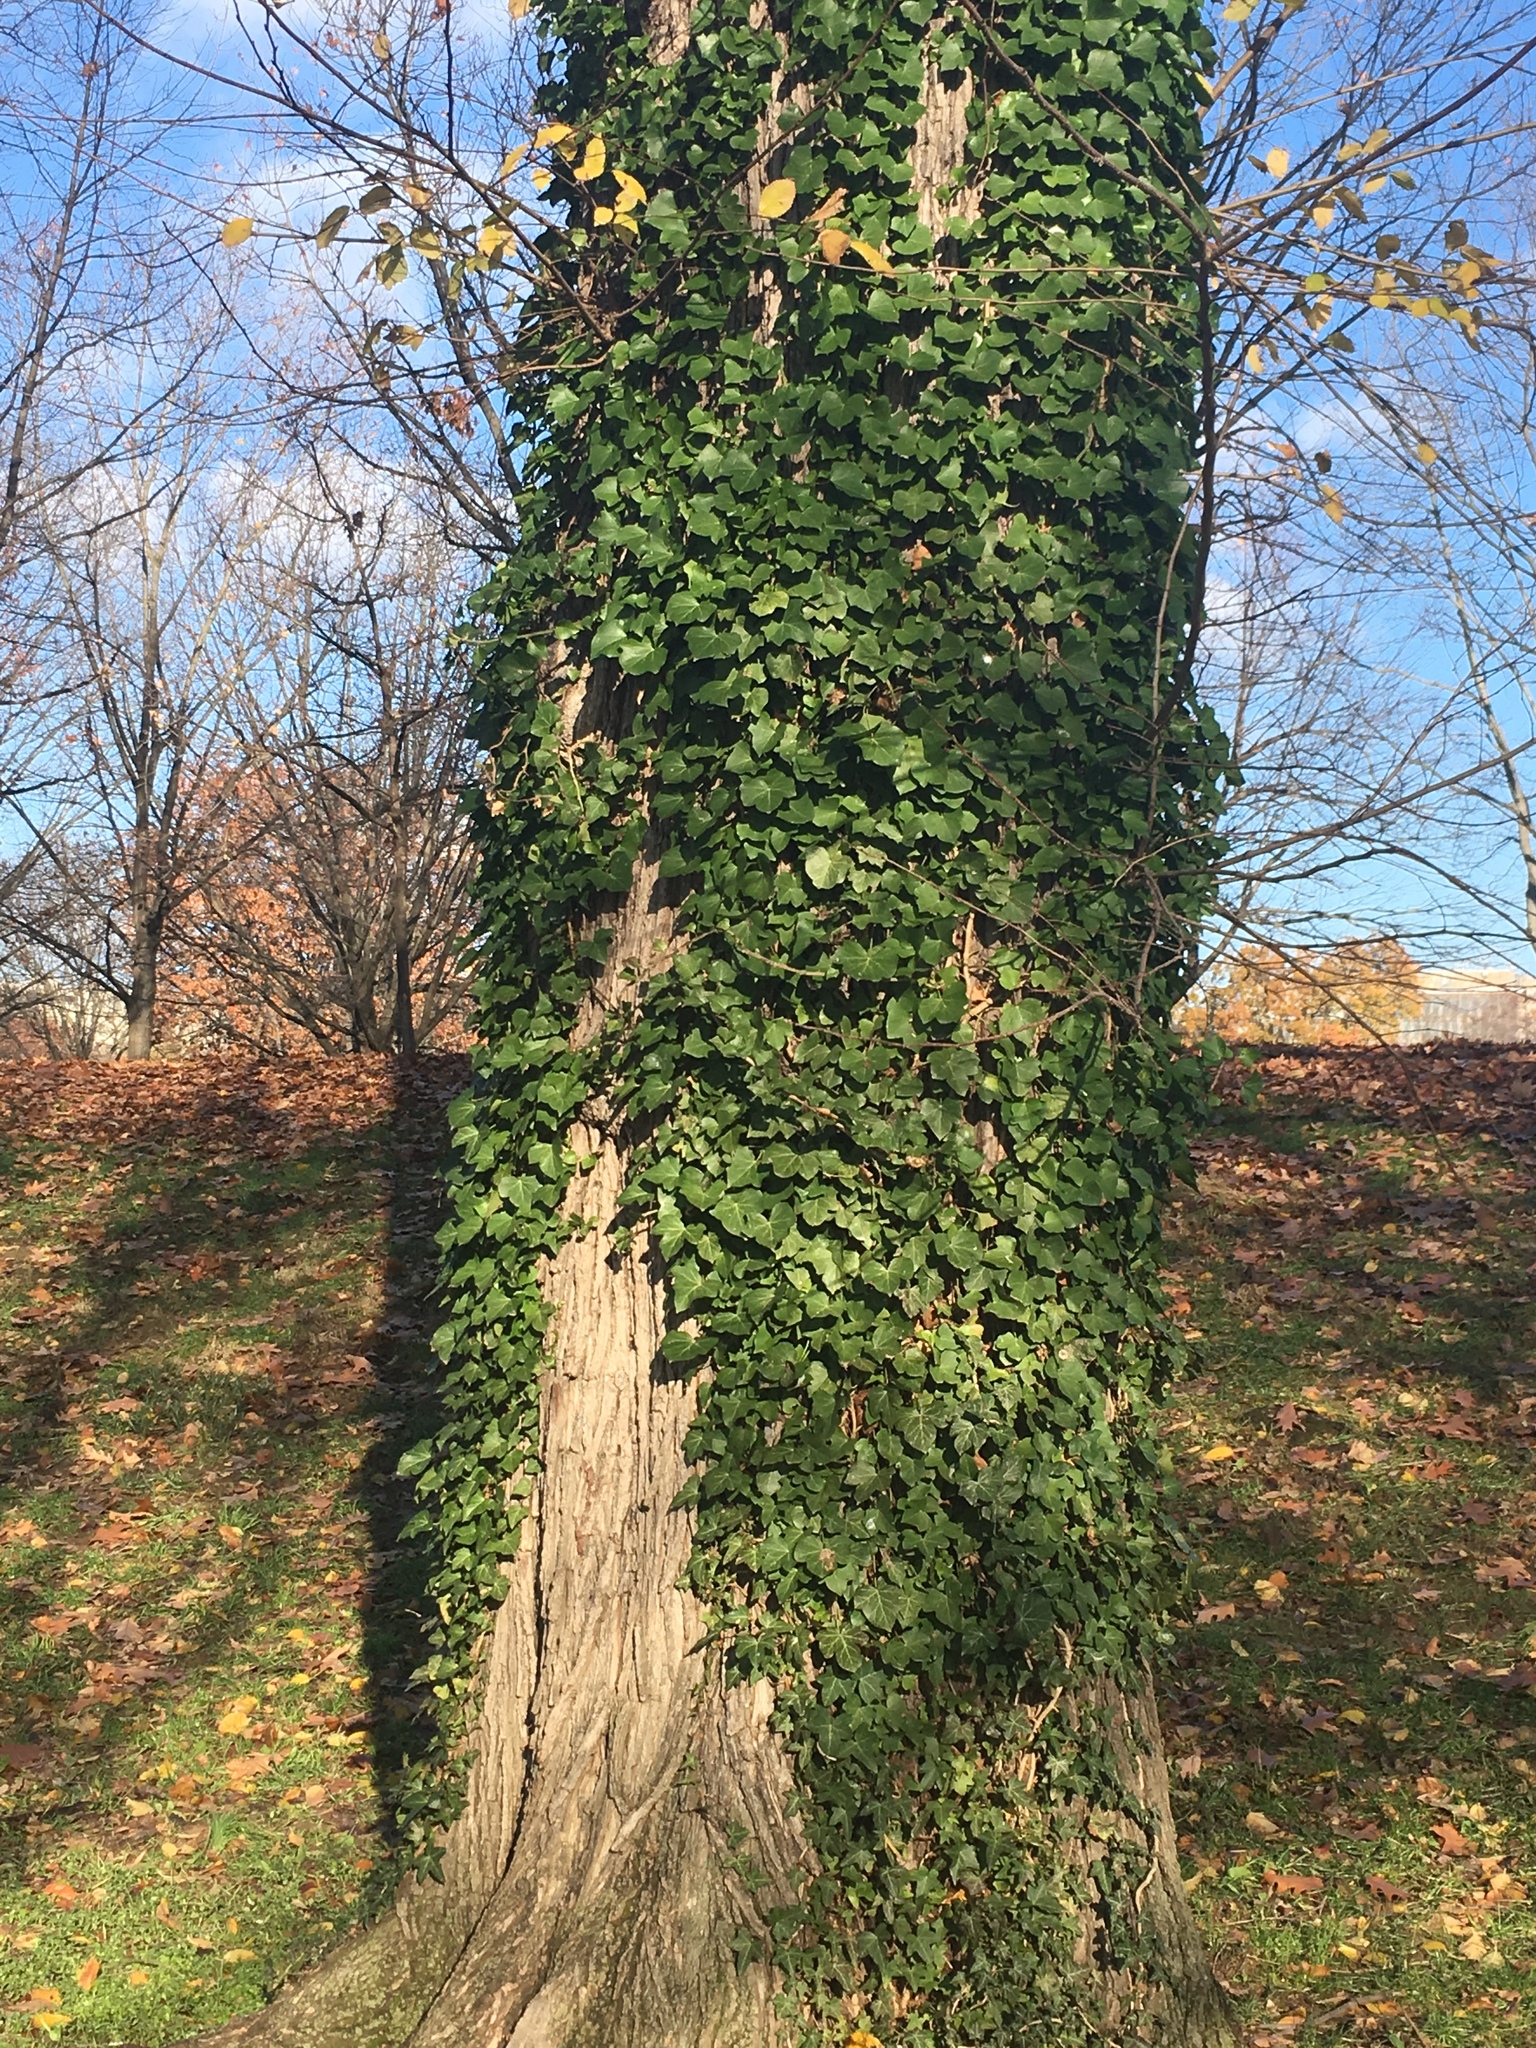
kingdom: Plantae
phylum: Tracheophyta
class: Magnoliopsida
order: Apiales
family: Araliaceae
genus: Hedera
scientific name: Hedera helix
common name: Ivy
